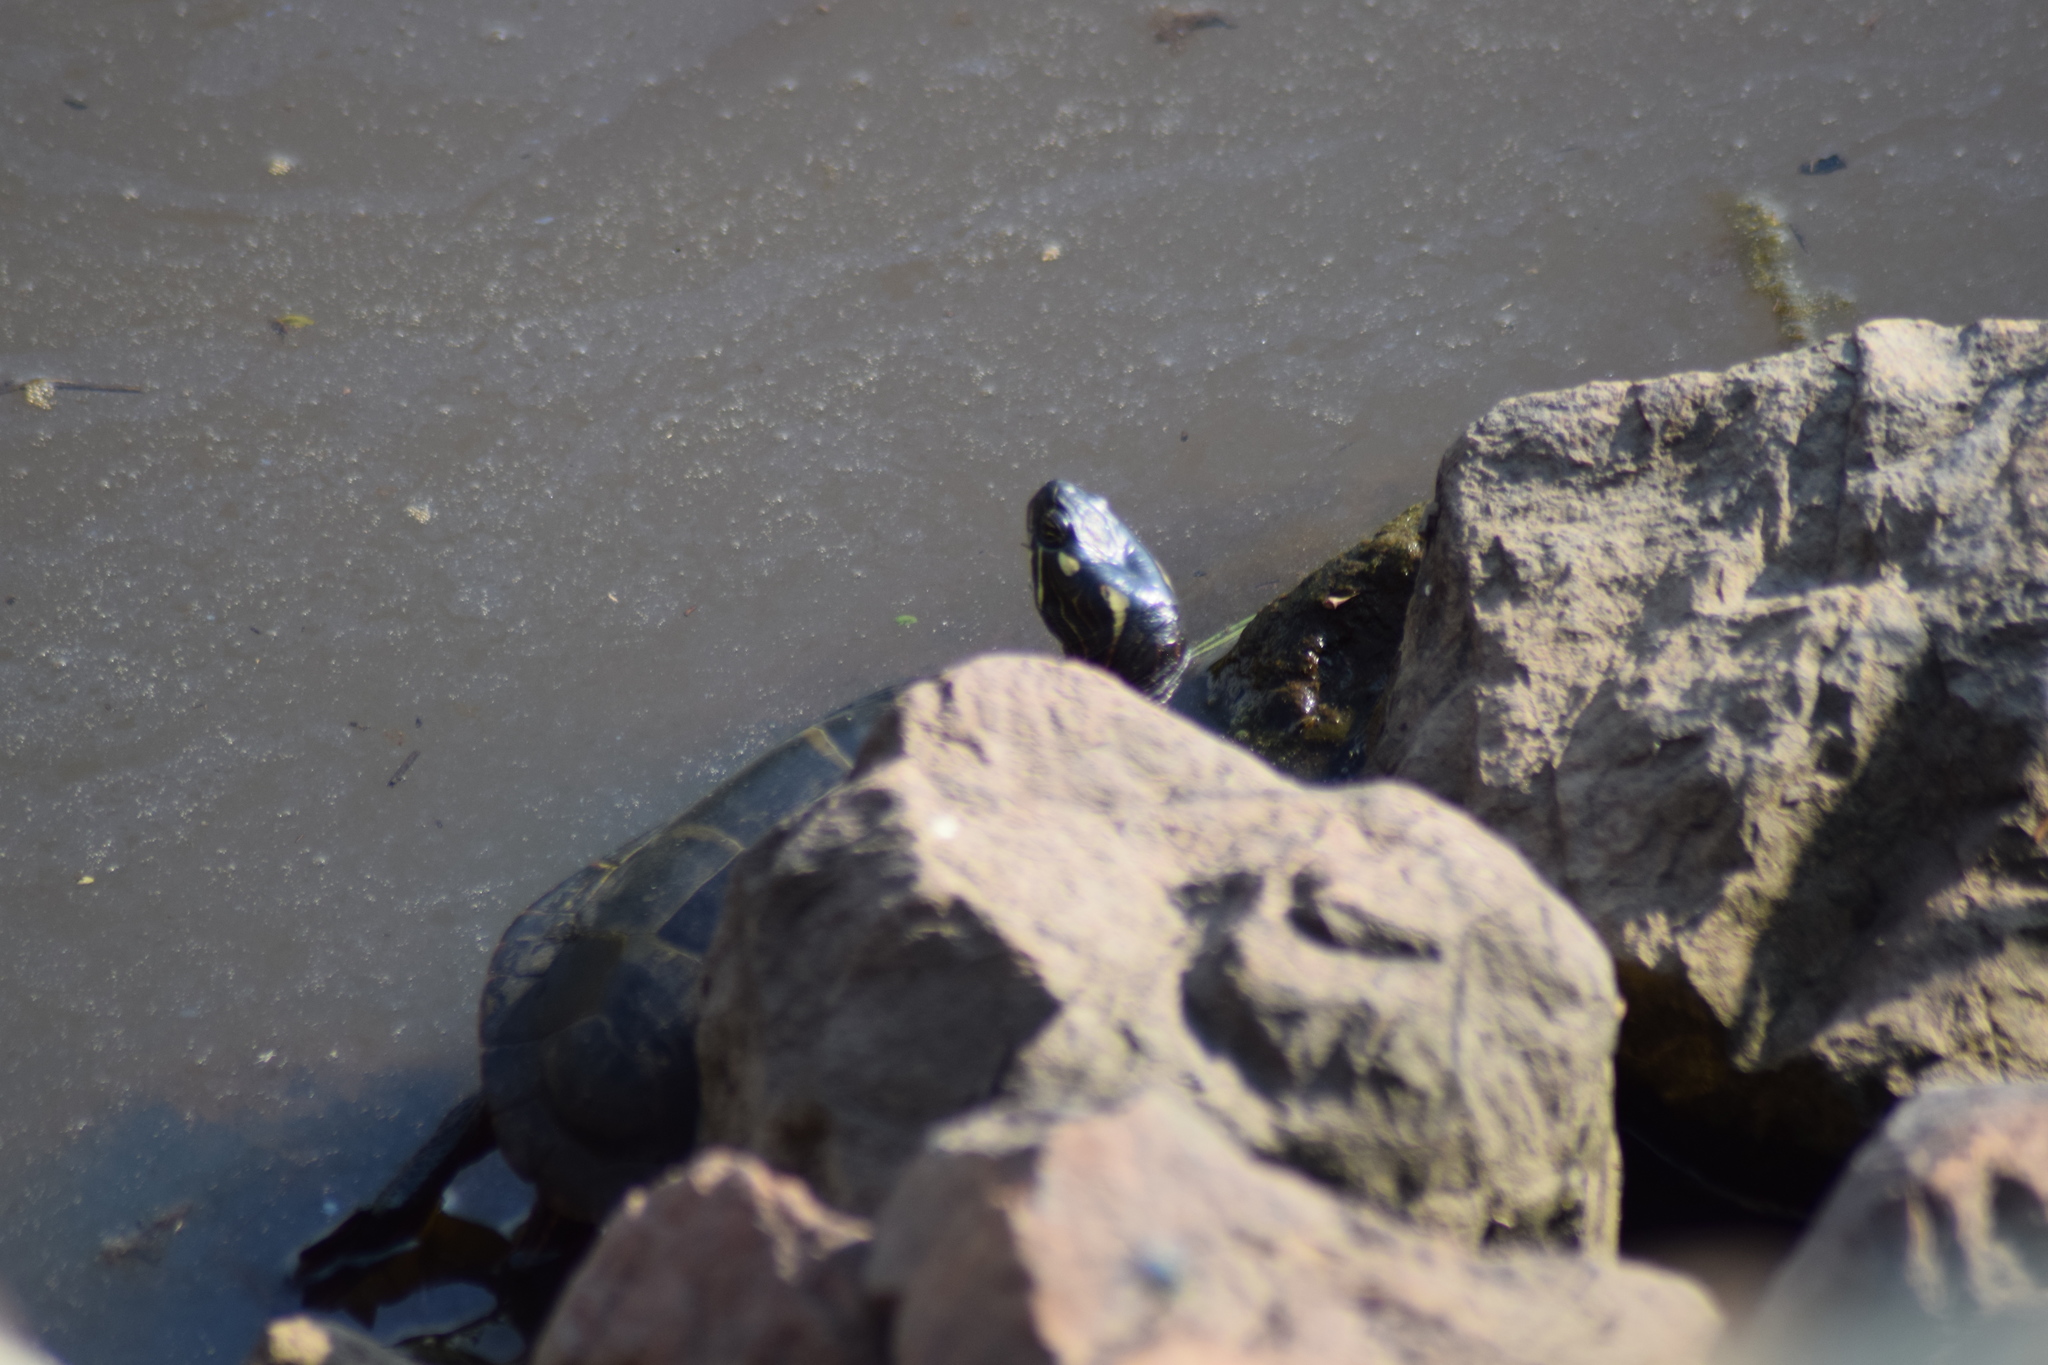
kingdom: Animalia
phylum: Chordata
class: Testudines
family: Emydidae
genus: Chrysemys
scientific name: Chrysemys picta
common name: Painted turtle
